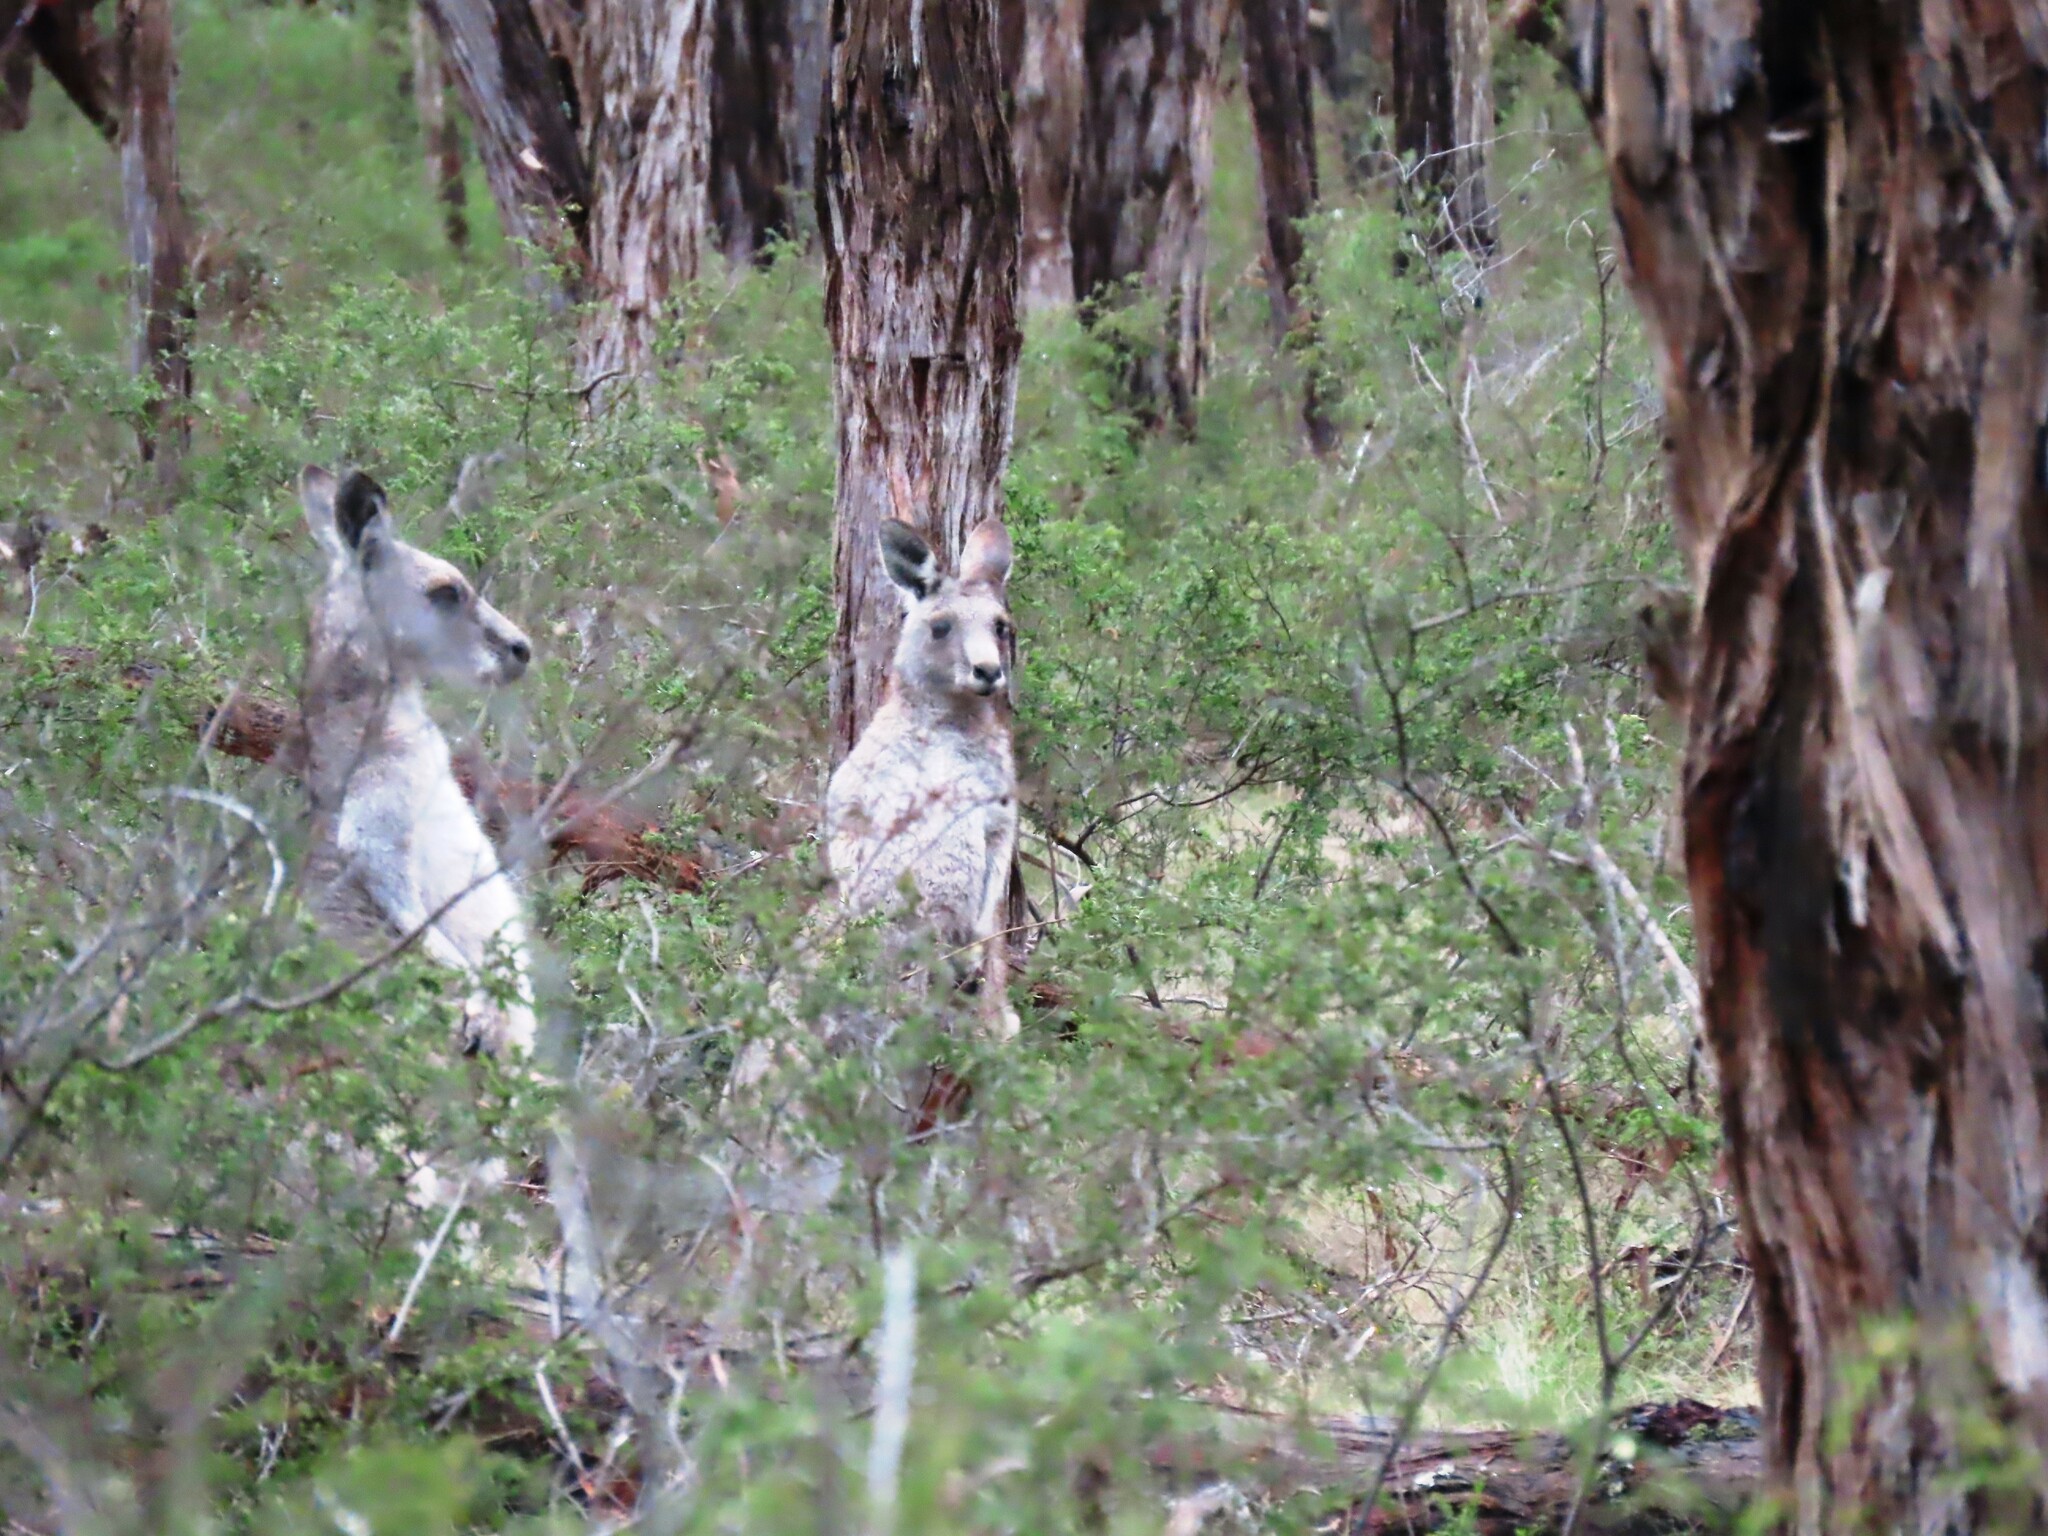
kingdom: Animalia
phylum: Chordata
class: Mammalia
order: Diprotodontia
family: Macropodidae
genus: Macropus
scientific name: Macropus giganteus
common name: Eastern grey kangaroo
